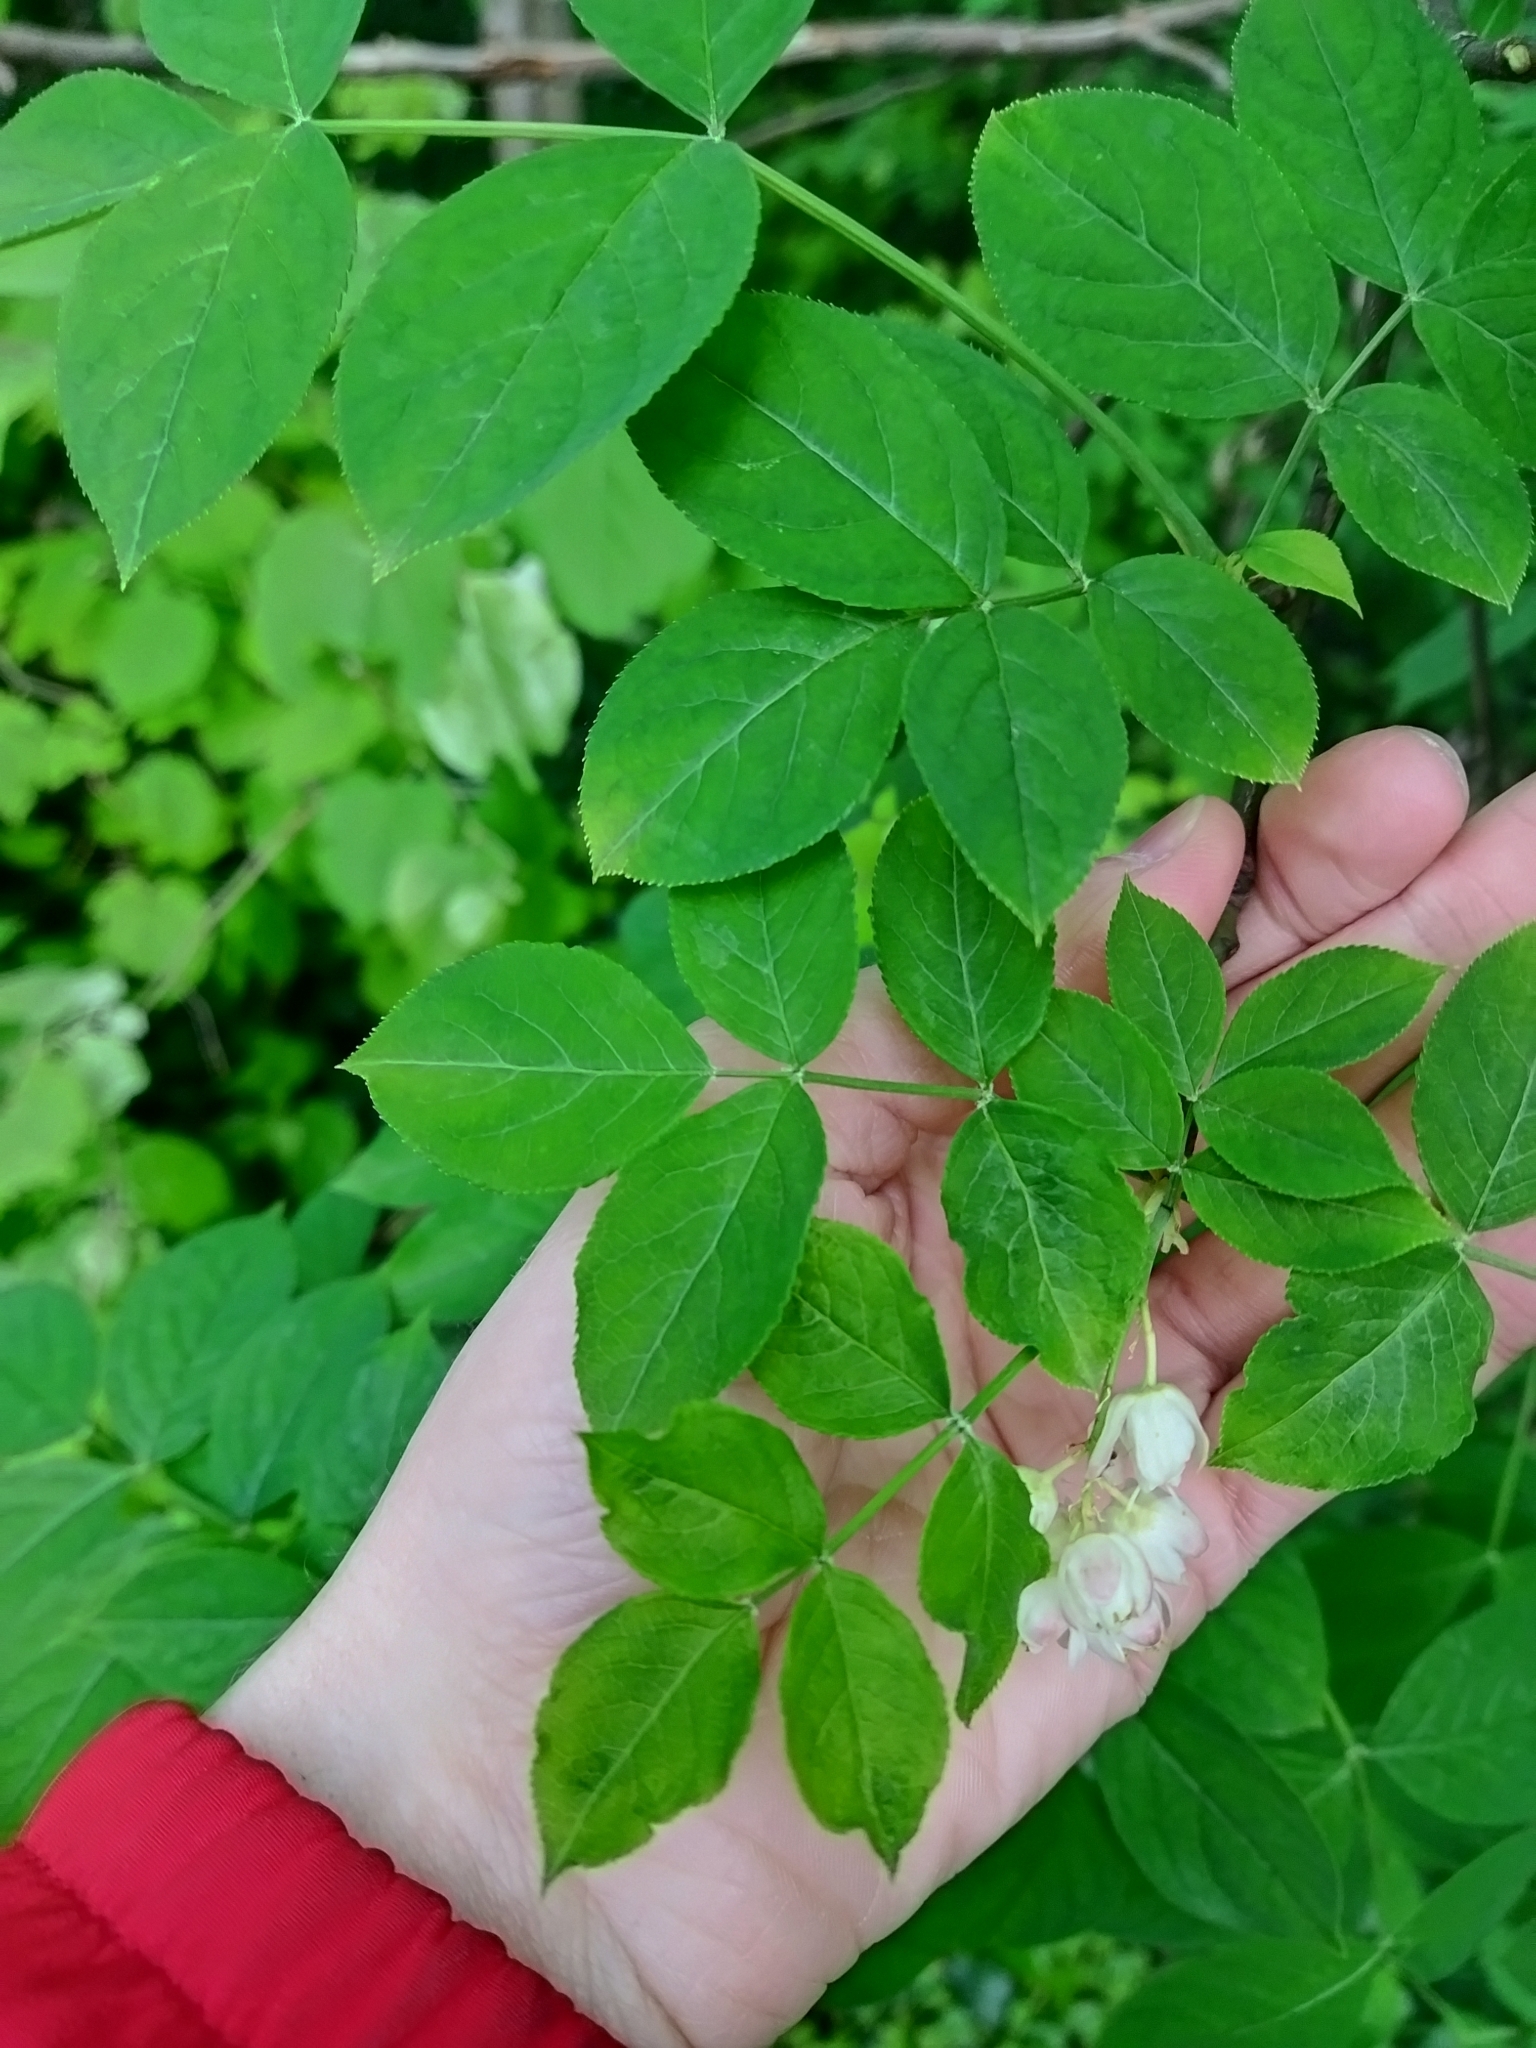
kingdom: Plantae
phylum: Tracheophyta
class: Magnoliopsida
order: Crossosomatales
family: Staphyleaceae
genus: Staphylea
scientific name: Staphylea pinnata
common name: Bladdernut
